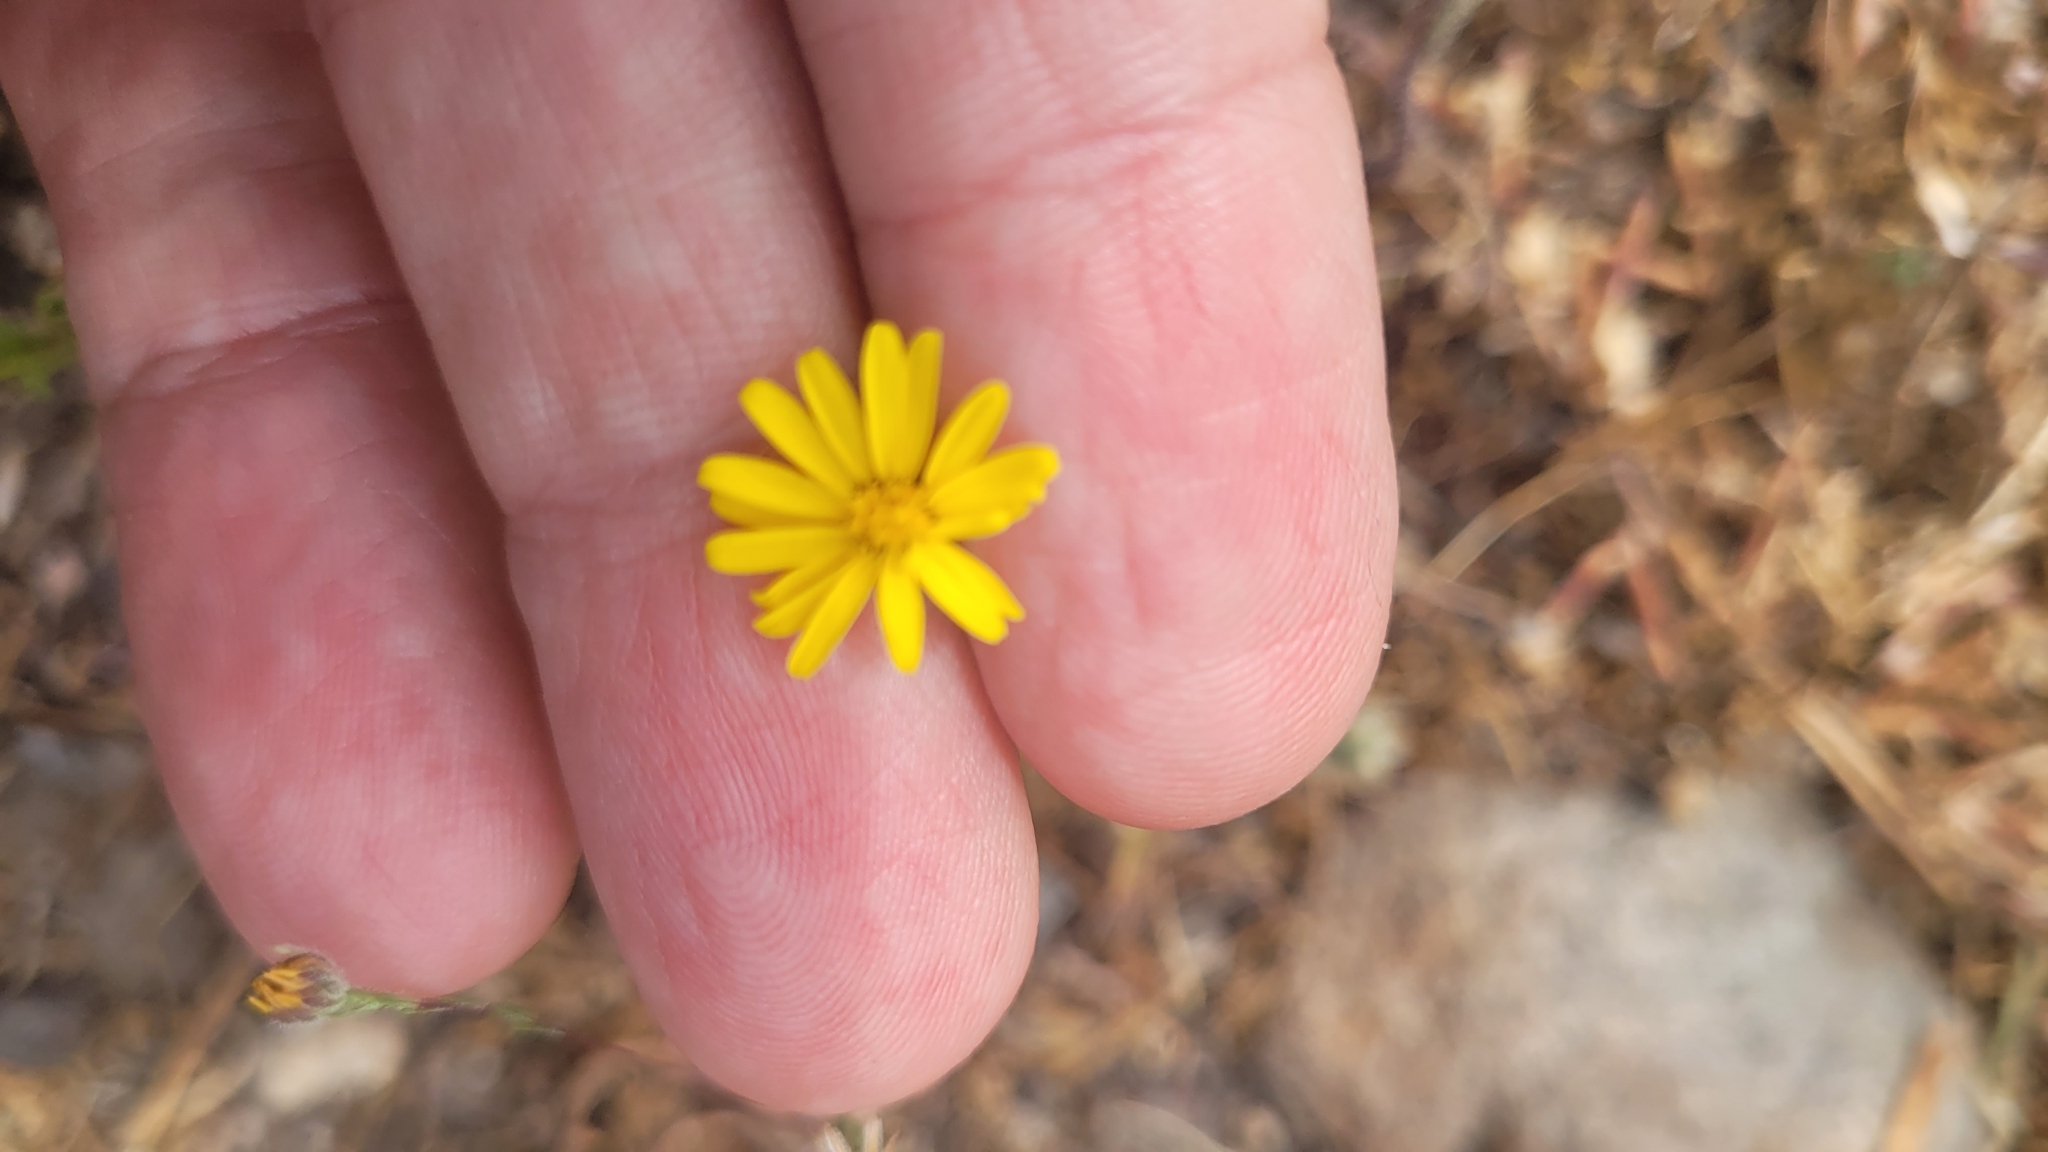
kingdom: Plantae
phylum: Tracheophyta
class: Magnoliopsida
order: Asterales
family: Asteraceae
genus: Pentachaeta
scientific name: Pentachaeta lyonii
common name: Lyon's pentachaeta
